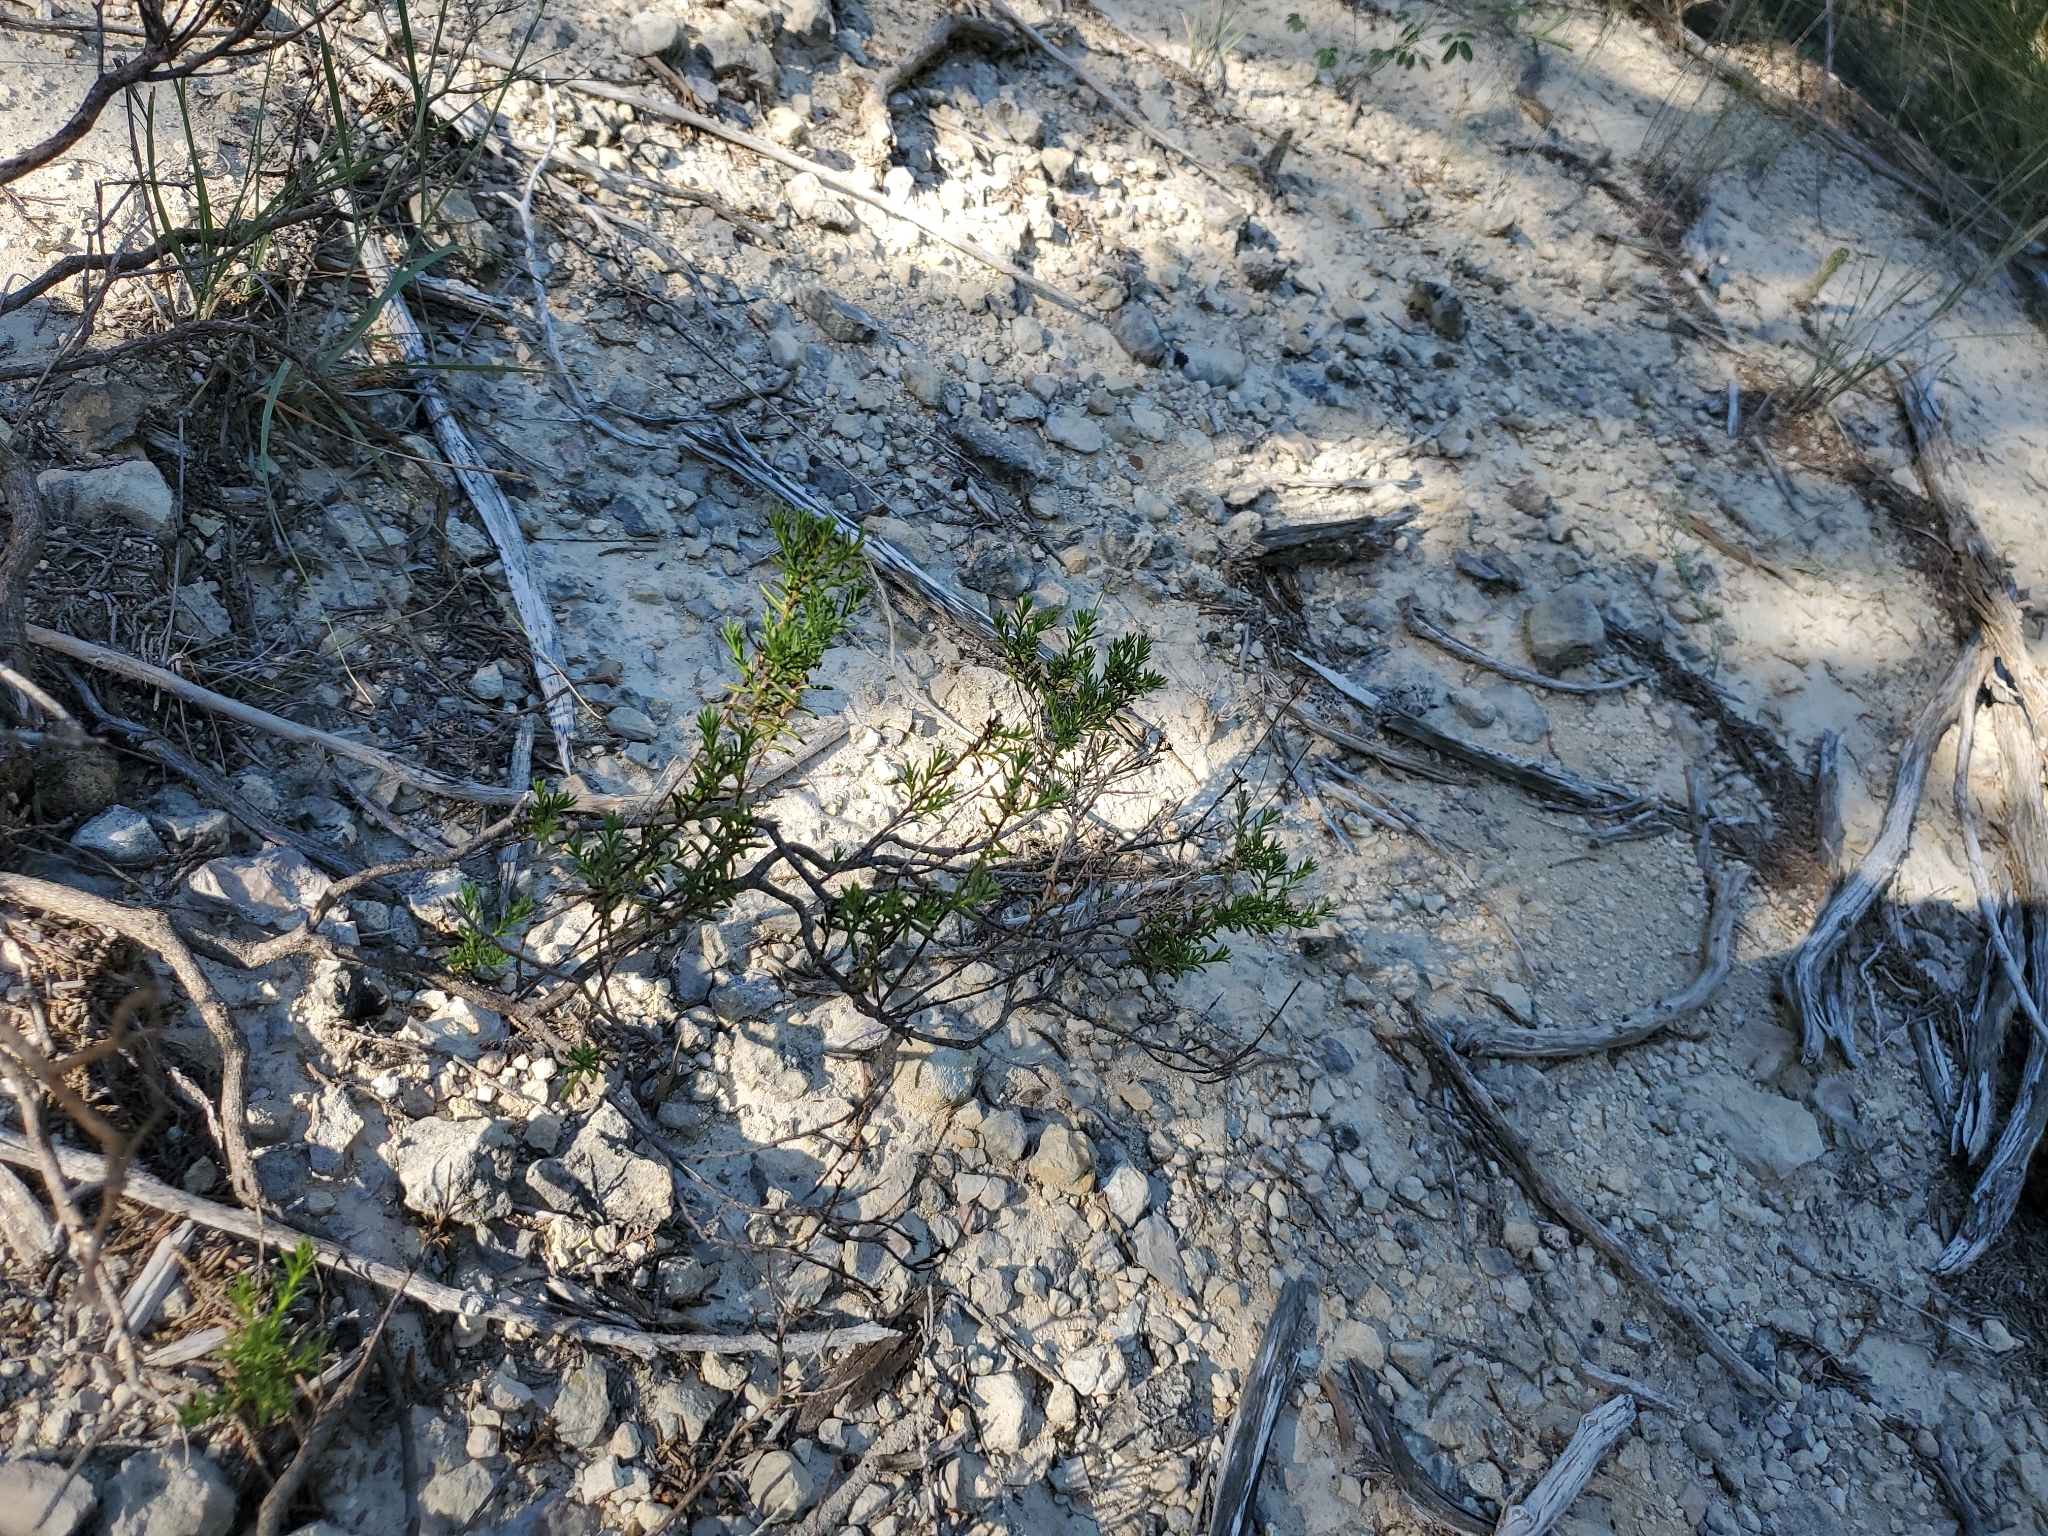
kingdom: Plantae
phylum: Tracheophyta
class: Magnoliopsida
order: Asterales
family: Asteraceae
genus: Chrysactinia
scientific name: Chrysactinia mexicana
